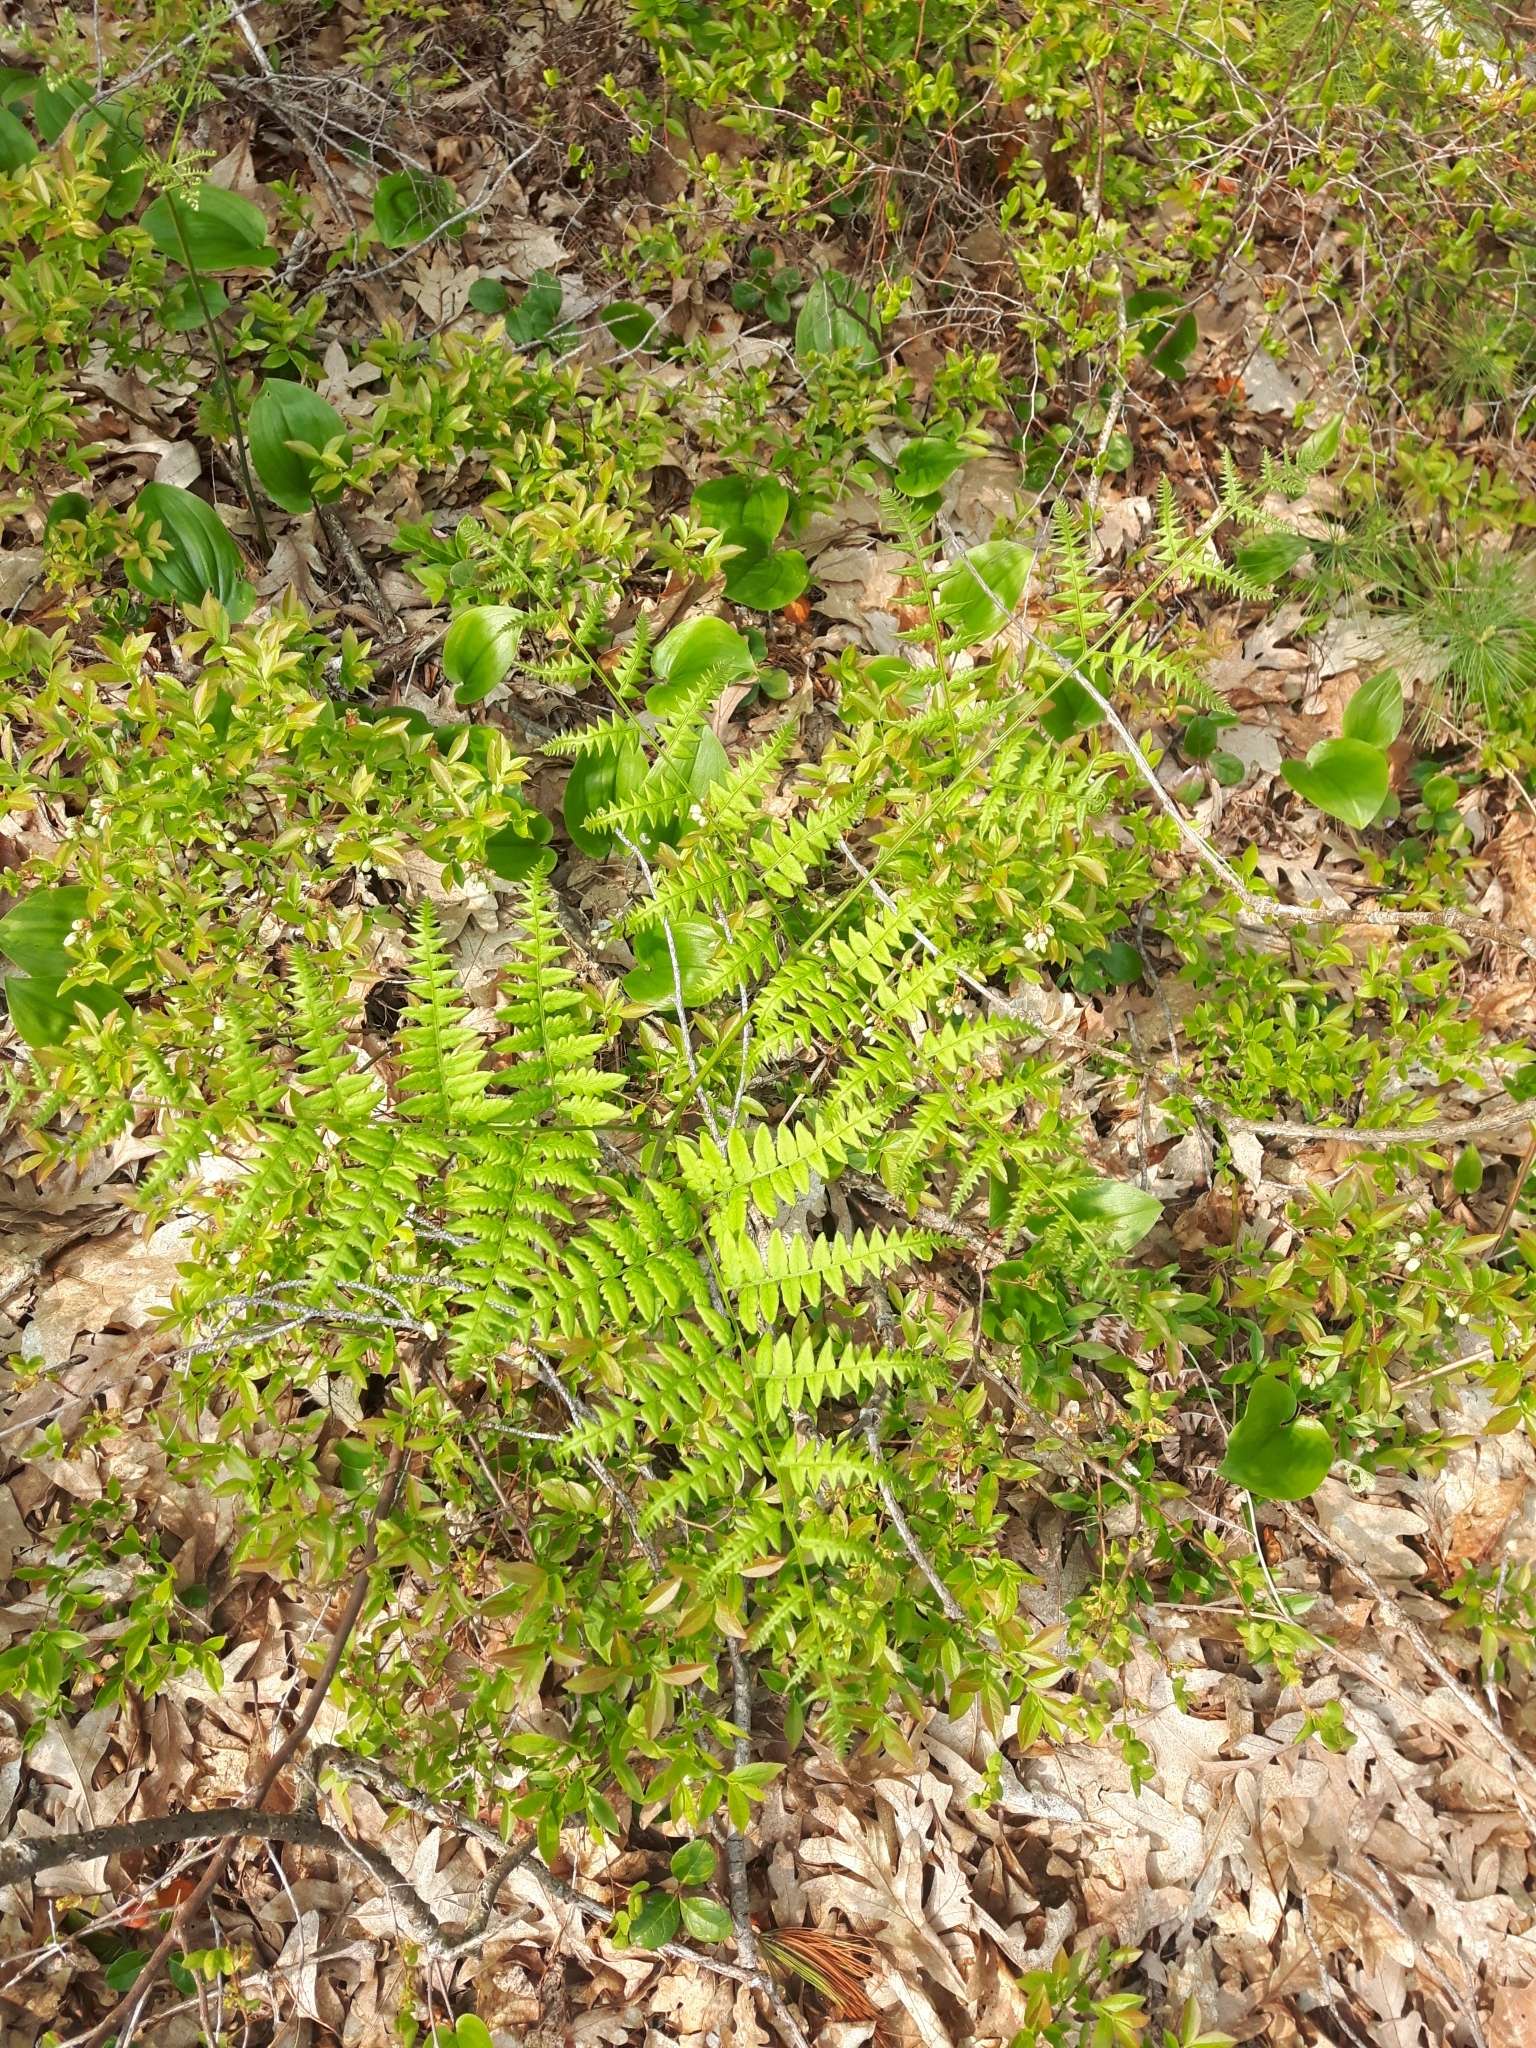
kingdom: Plantae
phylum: Tracheophyta
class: Polypodiopsida
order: Polypodiales
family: Dennstaedtiaceae
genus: Pteridium
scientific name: Pteridium aquilinum
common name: Bracken
